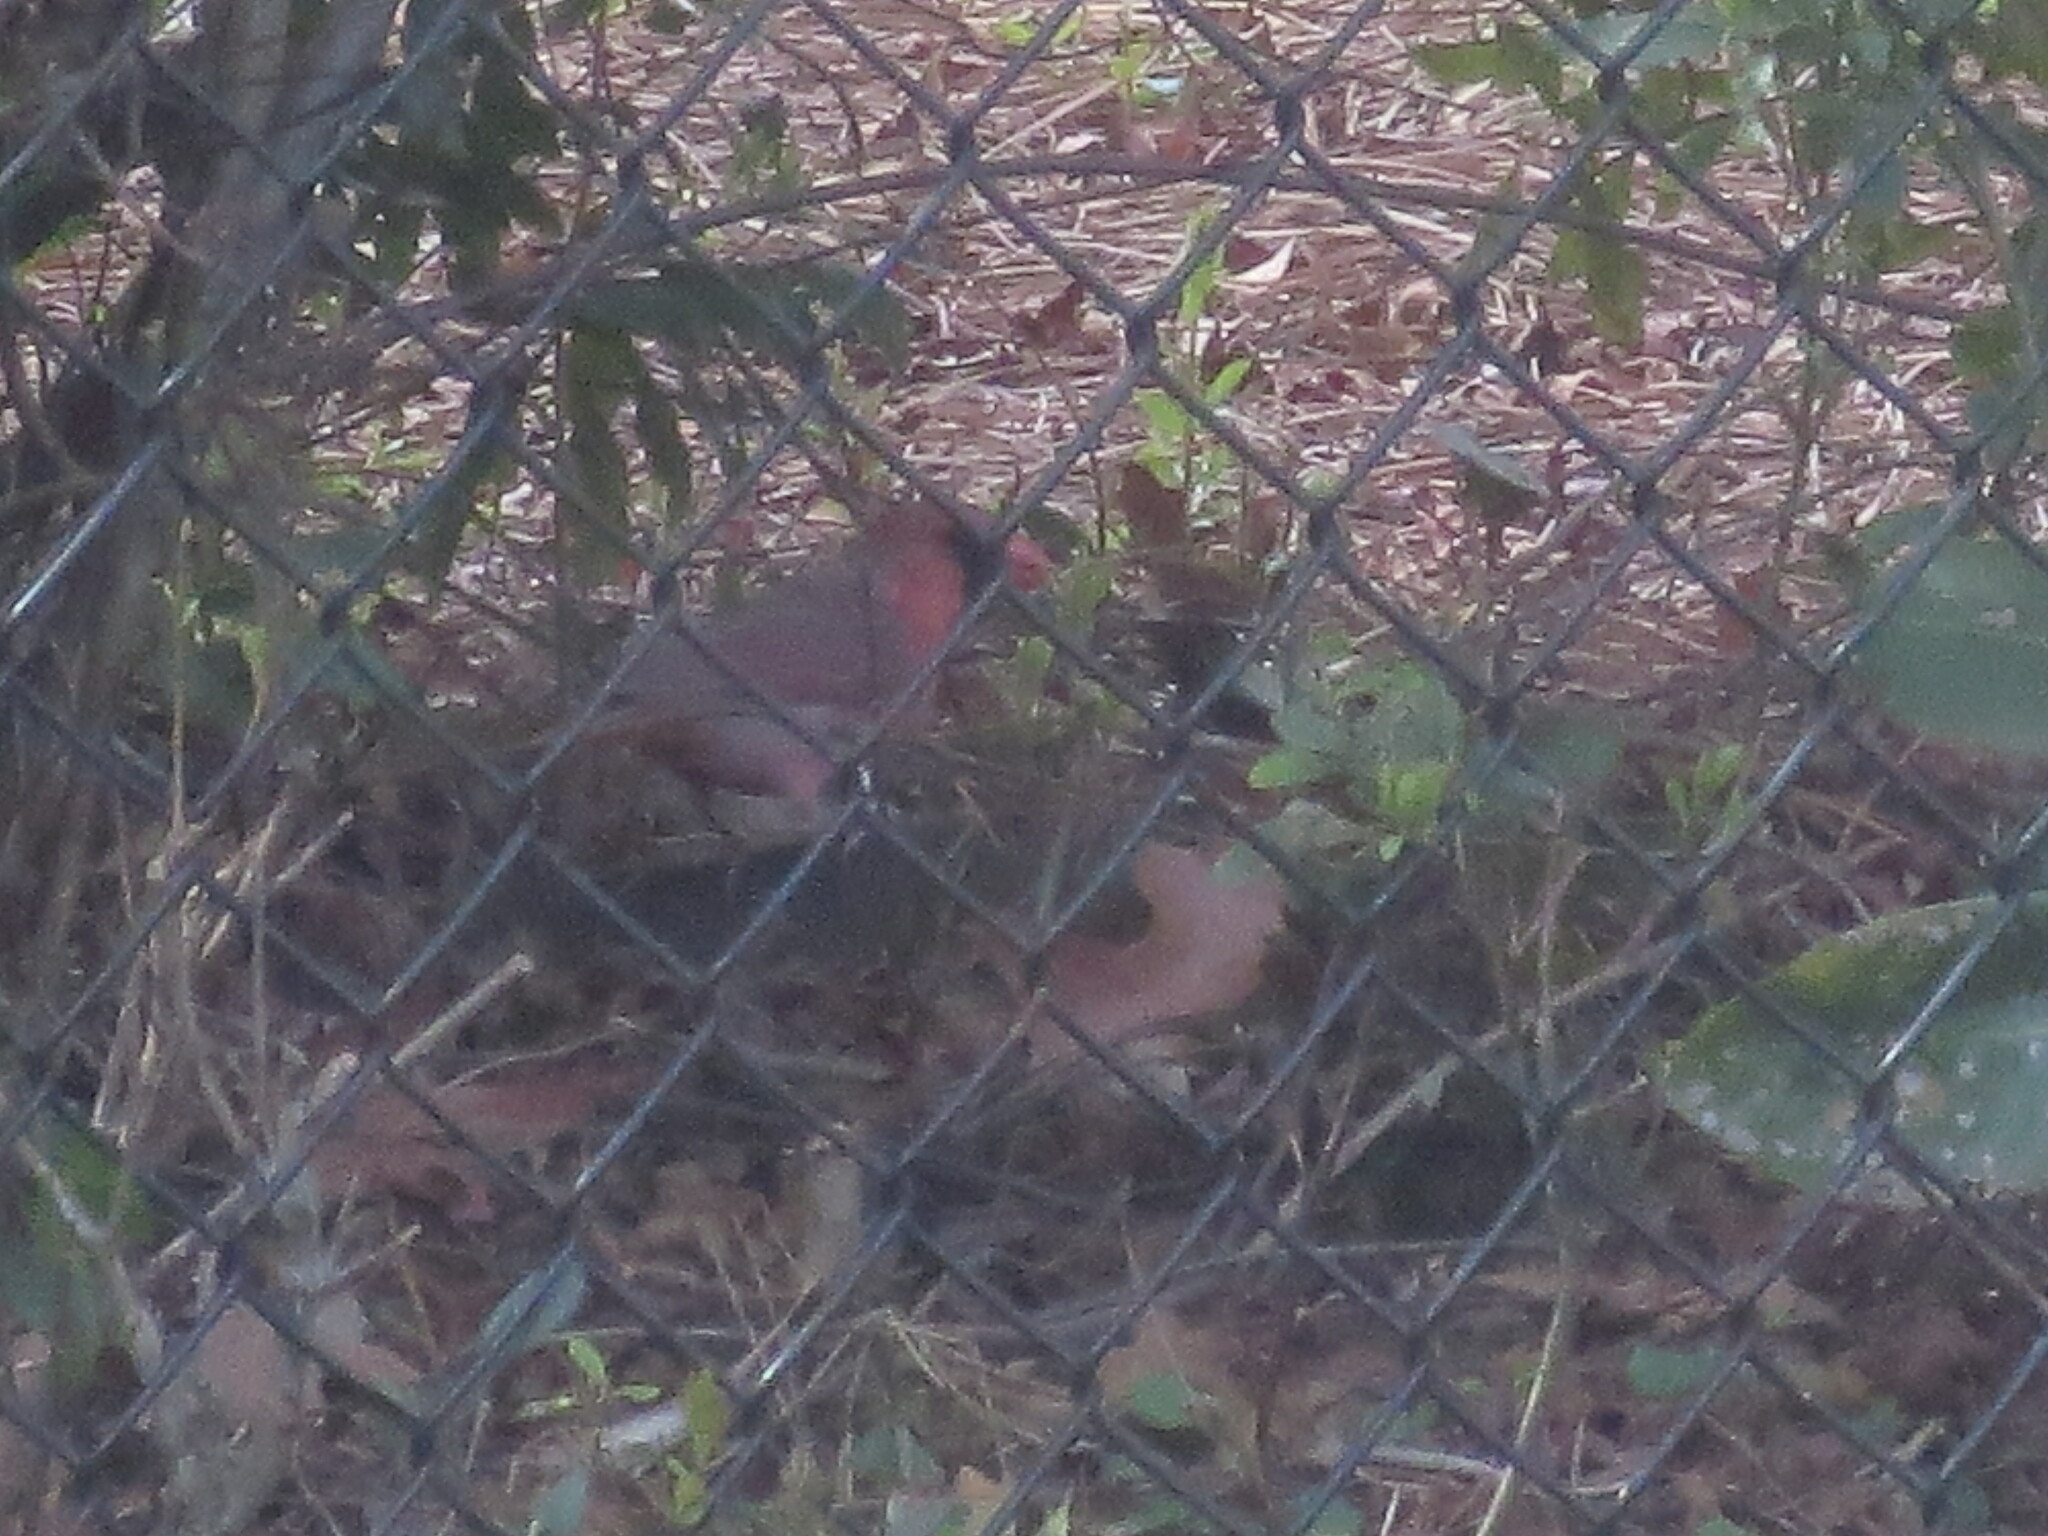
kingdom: Animalia
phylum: Chordata
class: Aves
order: Passeriformes
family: Cardinalidae
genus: Cardinalis
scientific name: Cardinalis cardinalis
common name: Northern cardinal
